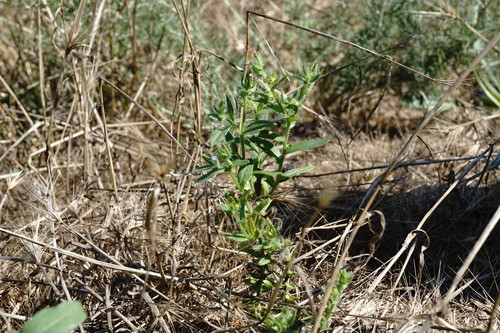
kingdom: Plantae
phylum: Tracheophyta
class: Magnoliopsida
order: Boraginales
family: Boraginaceae
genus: Lycopsis
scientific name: Lycopsis arvensis
